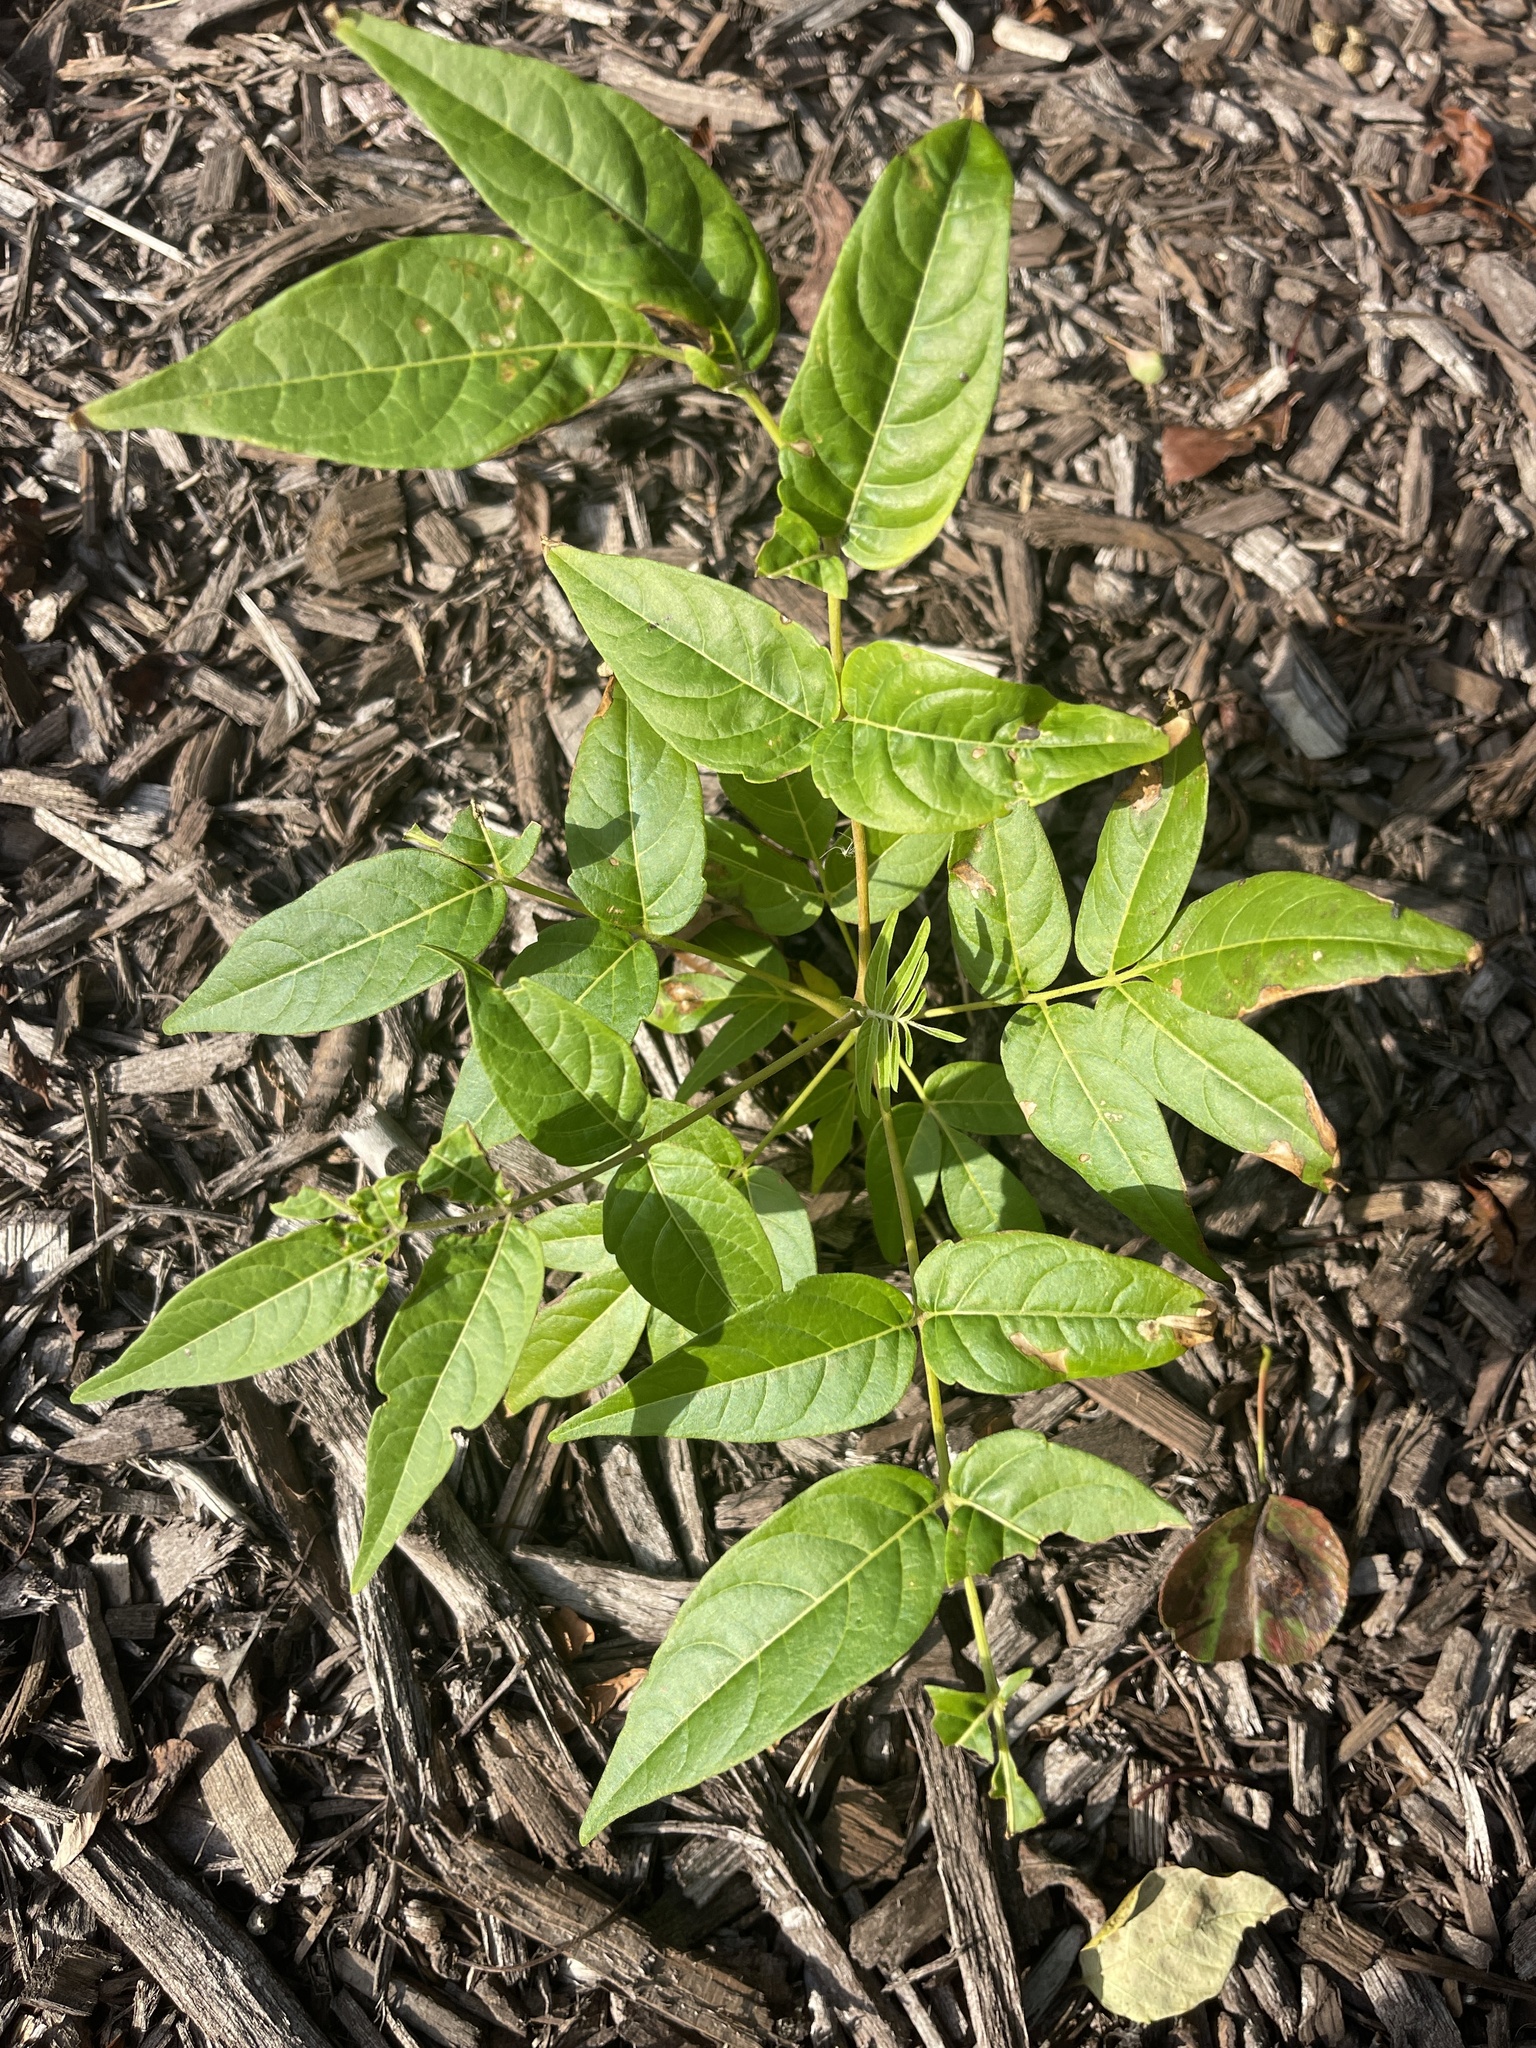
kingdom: Plantae
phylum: Tracheophyta
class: Magnoliopsida
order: Sapindales
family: Simaroubaceae
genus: Ailanthus
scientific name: Ailanthus altissima
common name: Tree-of-heaven
